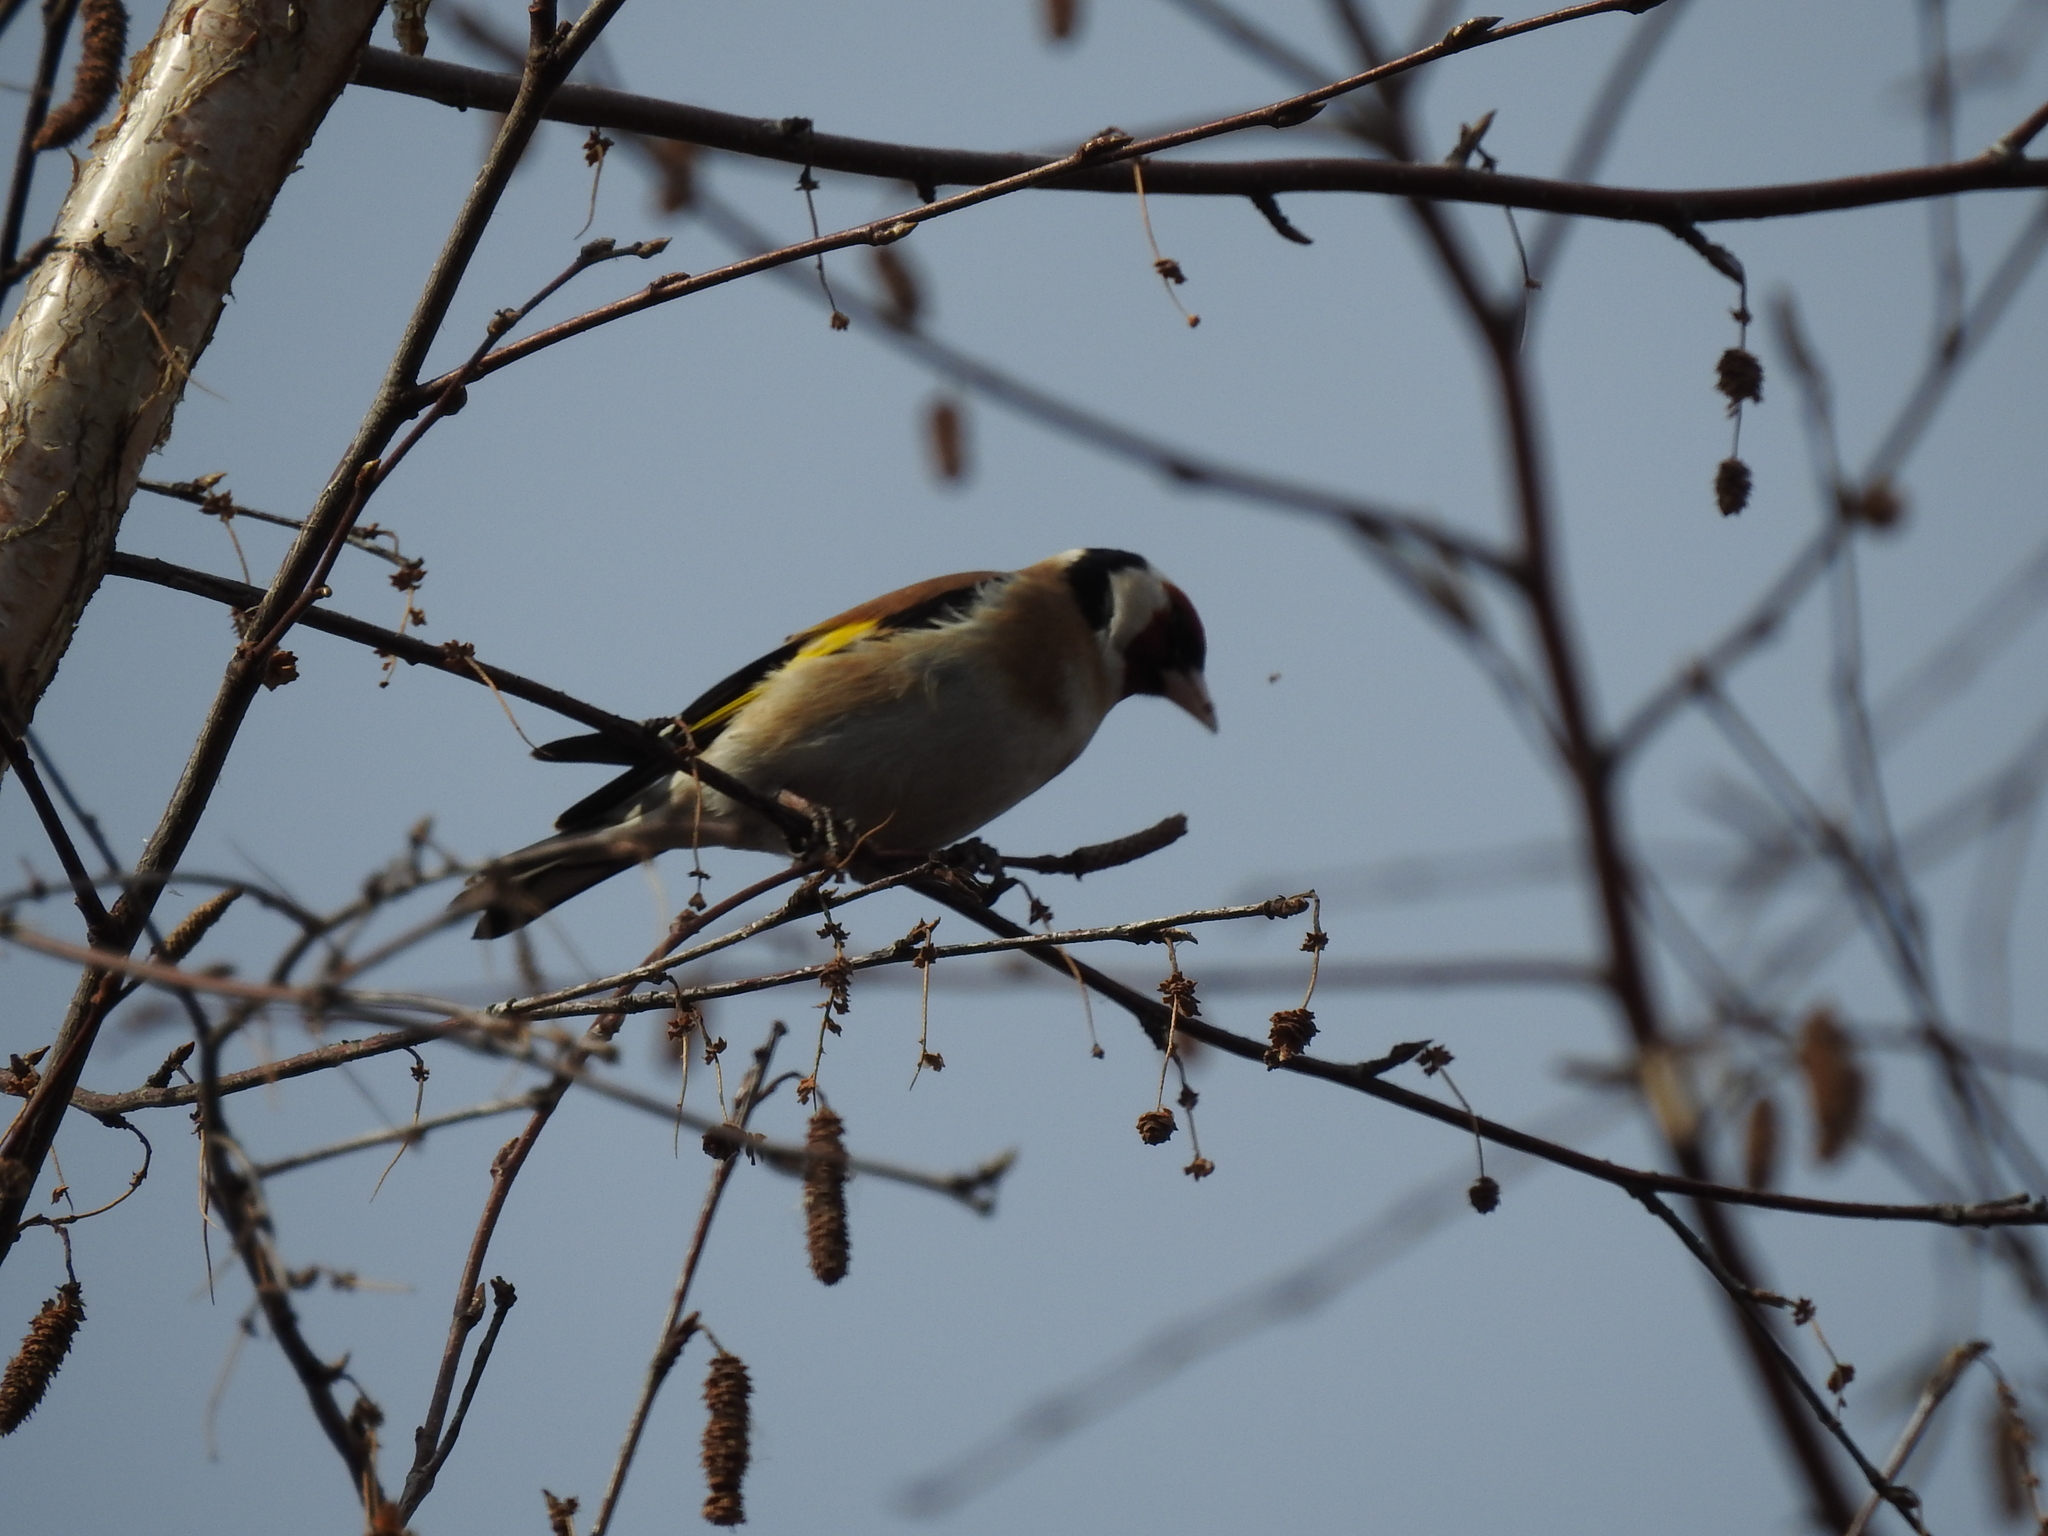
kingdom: Animalia
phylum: Chordata
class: Aves
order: Passeriformes
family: Fringillidae
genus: Carduelis
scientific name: Carduelis carduelis
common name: European goldfinch
